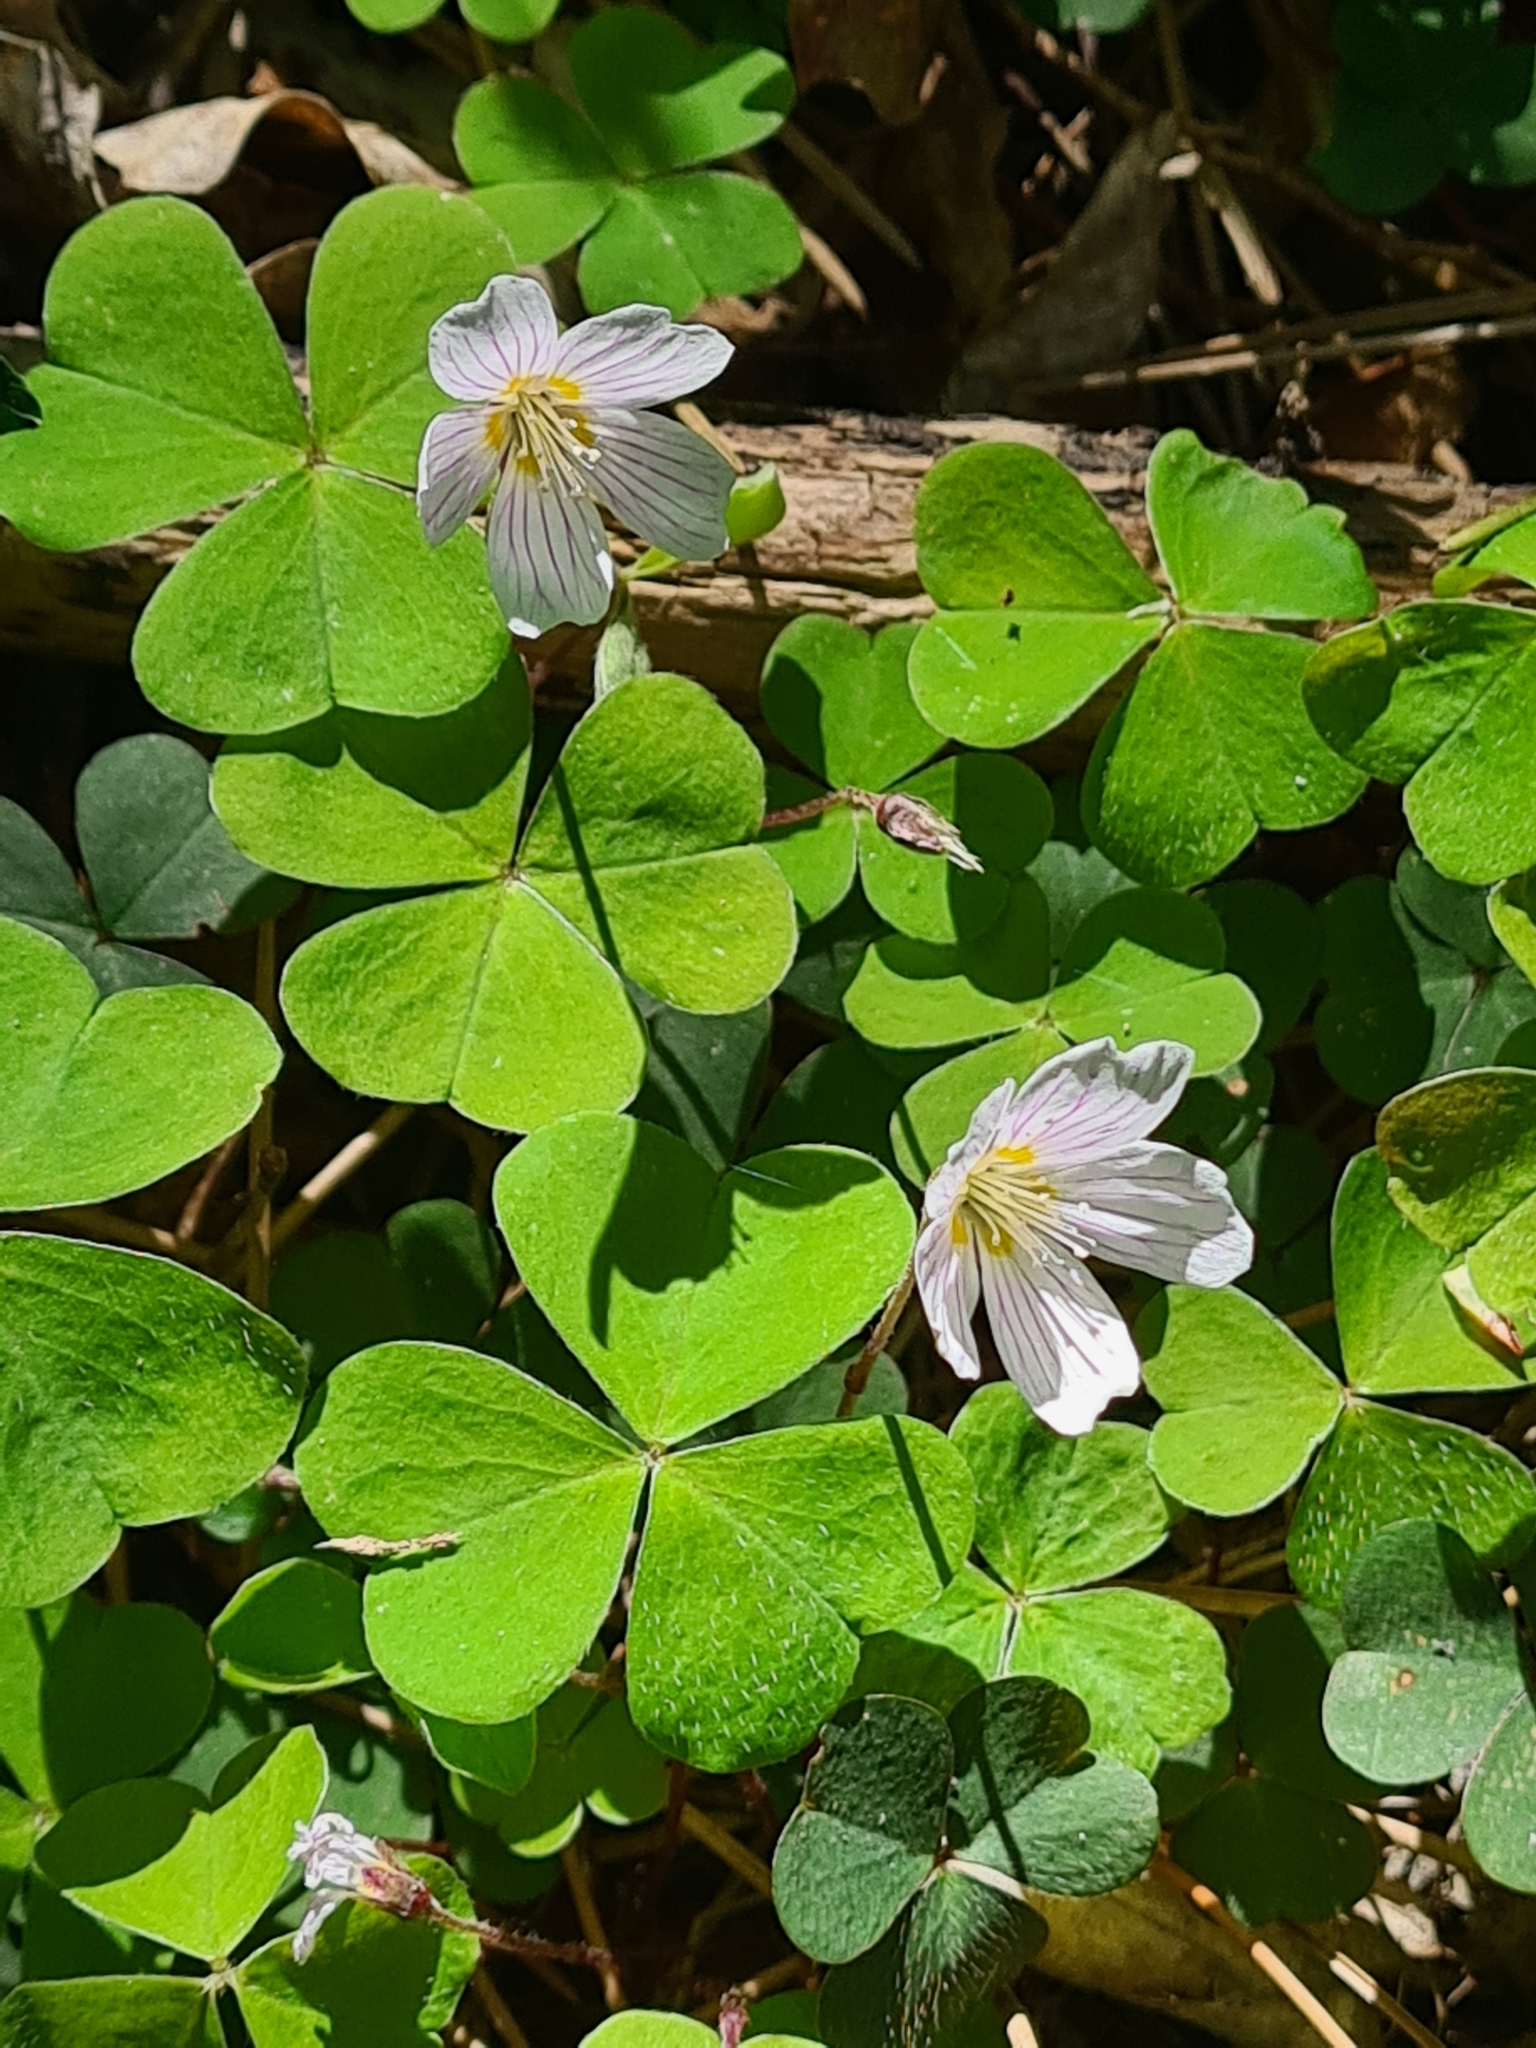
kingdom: Plantae
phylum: Tracheophyta
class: Magnoliopsida
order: Oxalidales
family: Oxalidaceae
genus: Oxalis
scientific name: Oxalis acetosella
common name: Wood-sorrel
